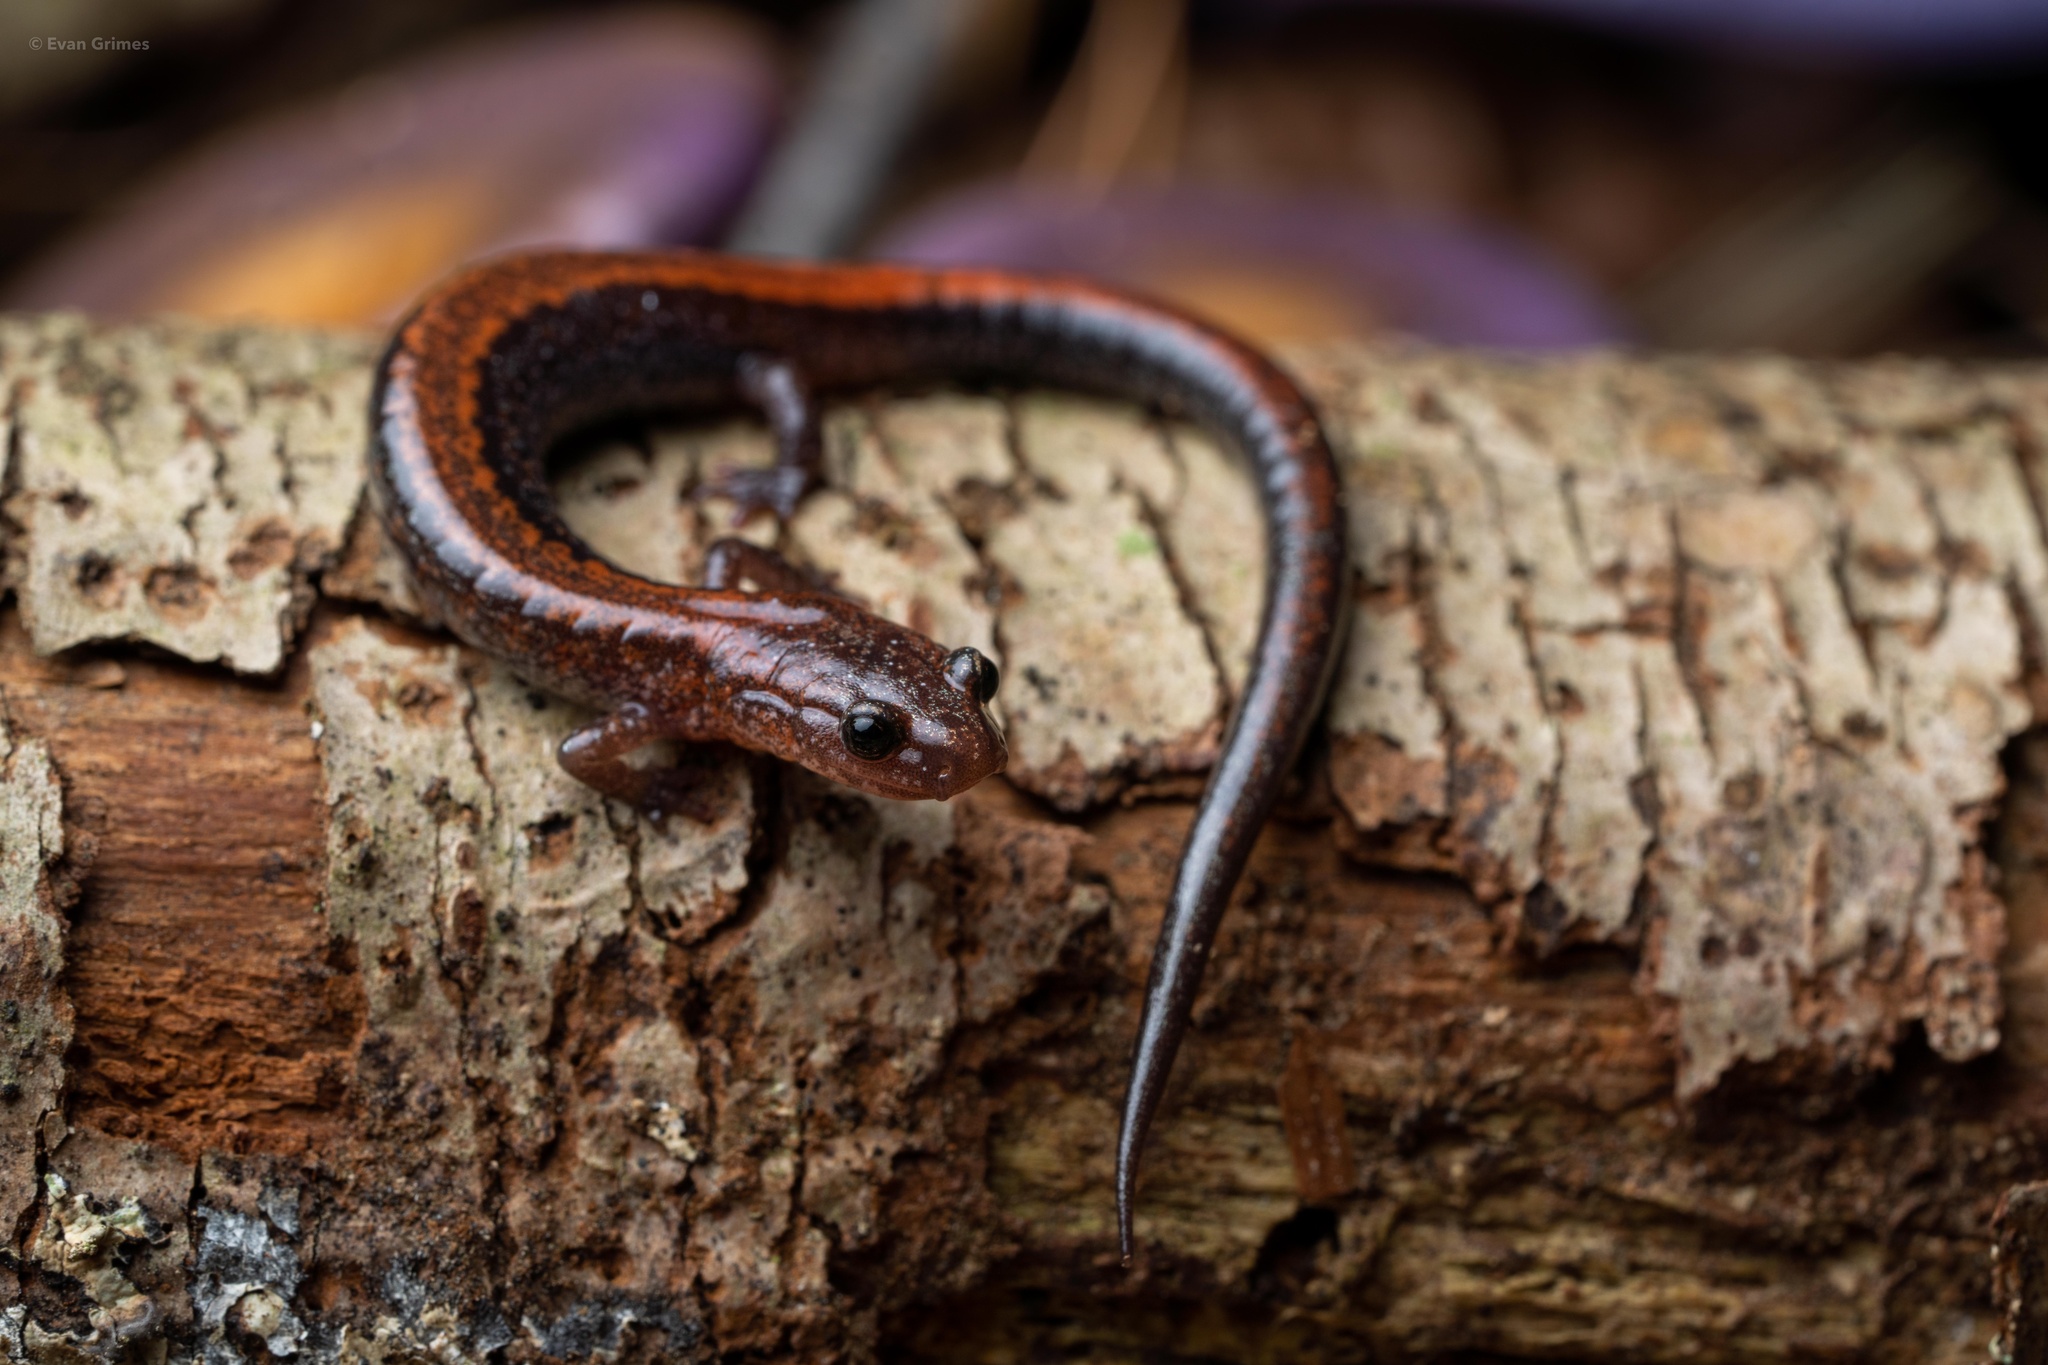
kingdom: Animalia
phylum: Chordata
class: Amphibia
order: Caudata
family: Plethodontidae
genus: Plethodon
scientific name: Plethodon cinereus
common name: Redback salamander
